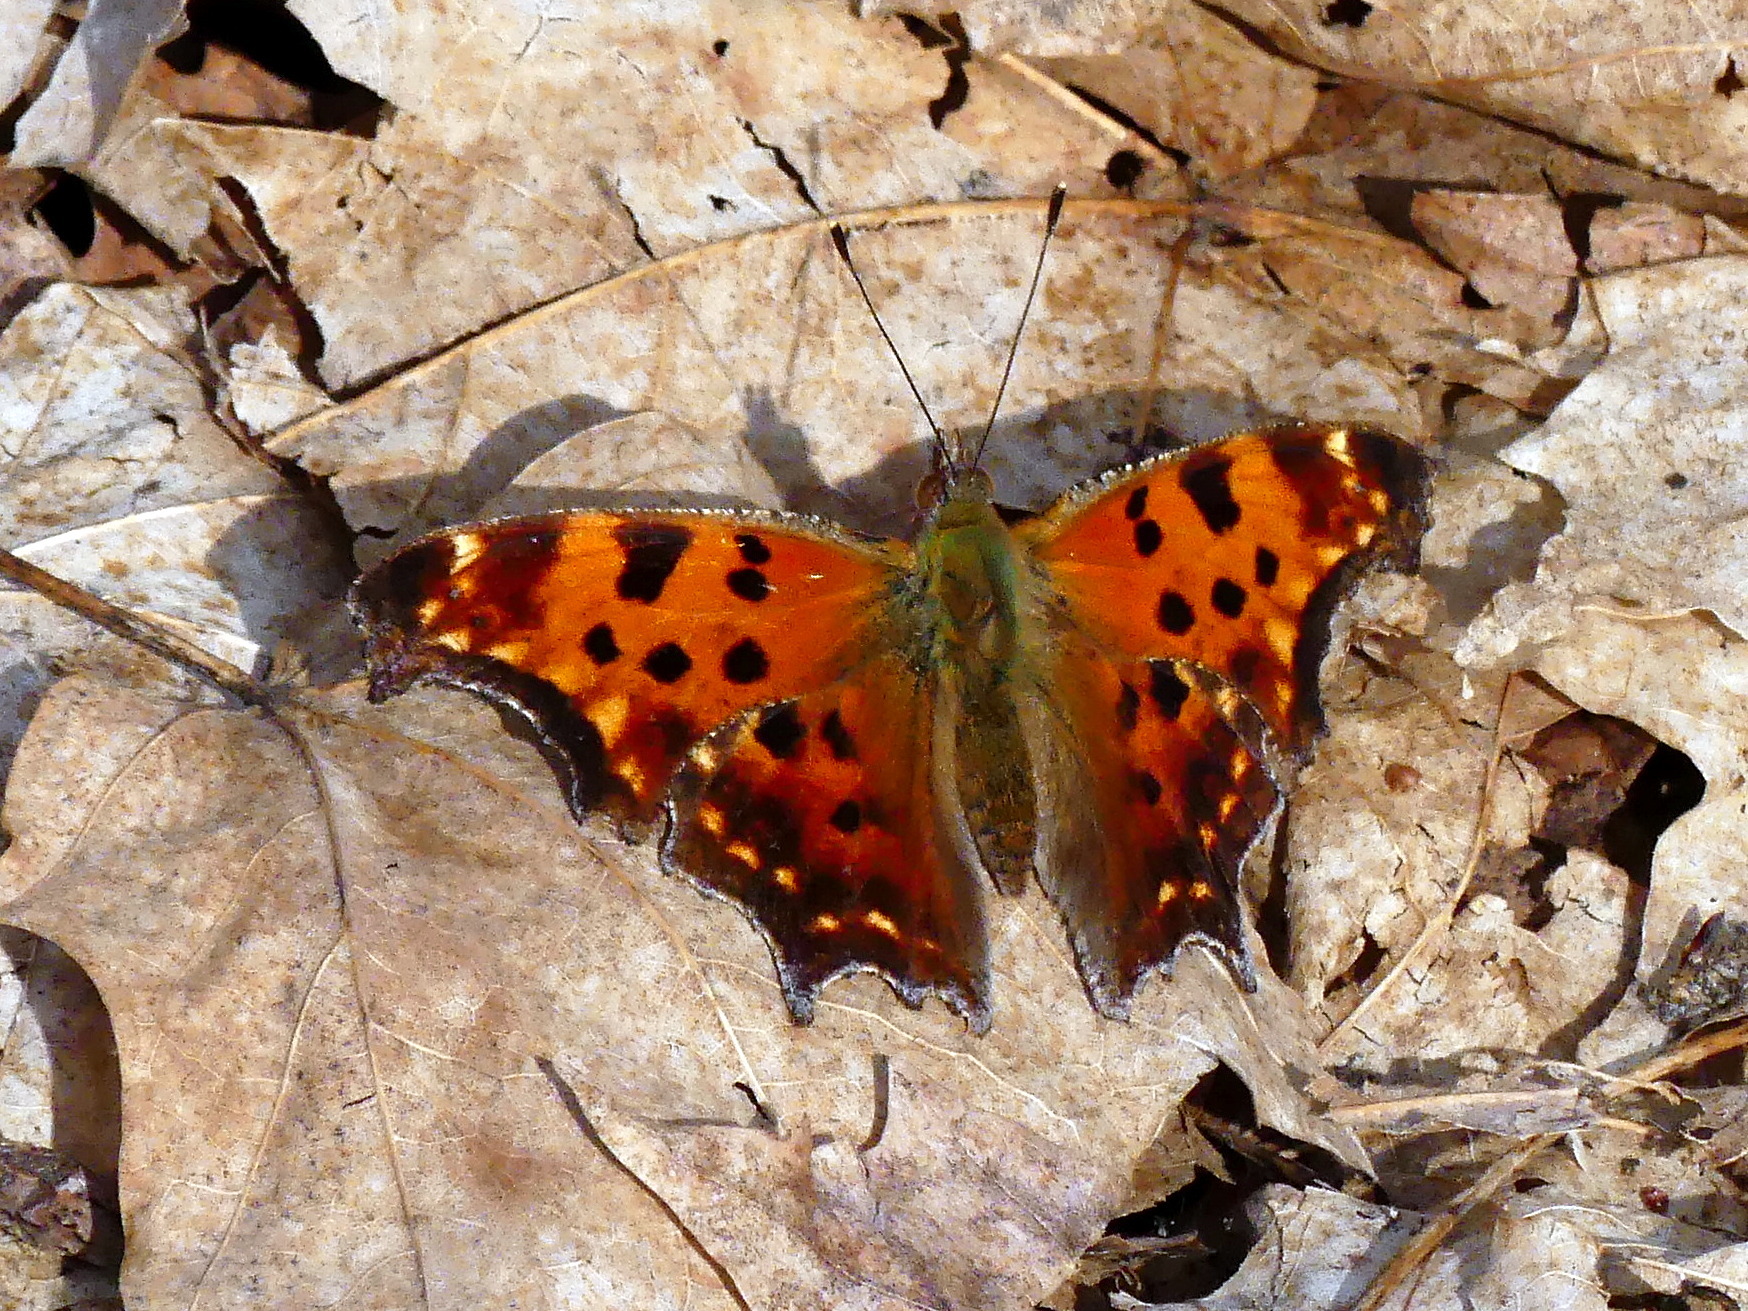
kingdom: Animalia
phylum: Arthropoda
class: Insecta
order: Lepidoptera
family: Nymphalidae
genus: Polygonia
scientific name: Polygonia comma
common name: Eastern comma
